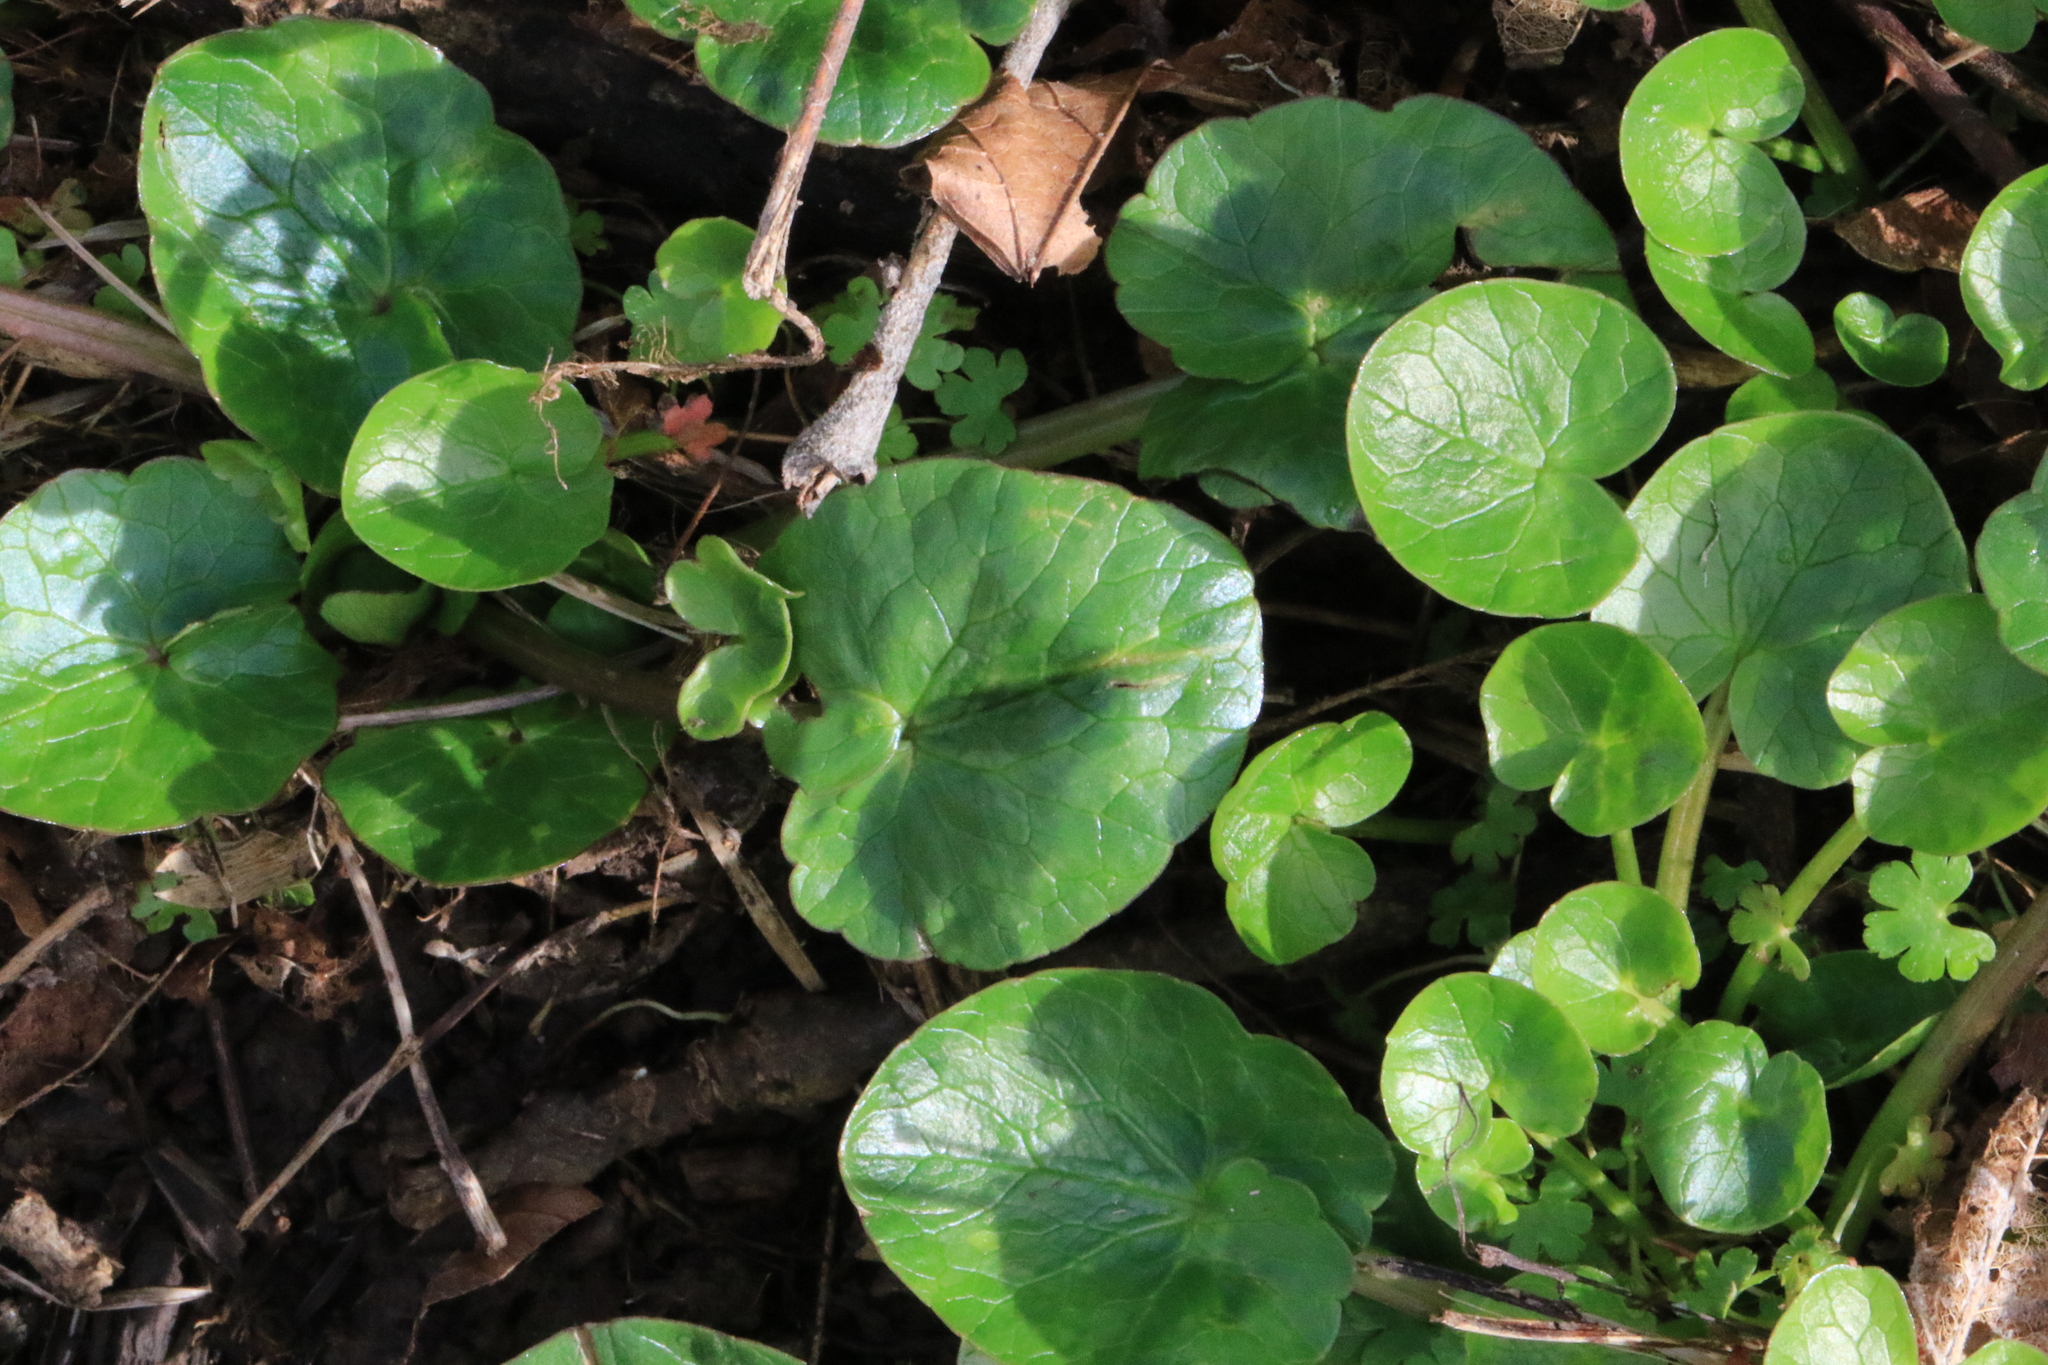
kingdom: Plantae
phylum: Tracheophyta
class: Magnoliopsida
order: Ranunculales
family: Ranunculaceae
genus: Ficaria
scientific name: Ficaria verna
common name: Lesser celandine
